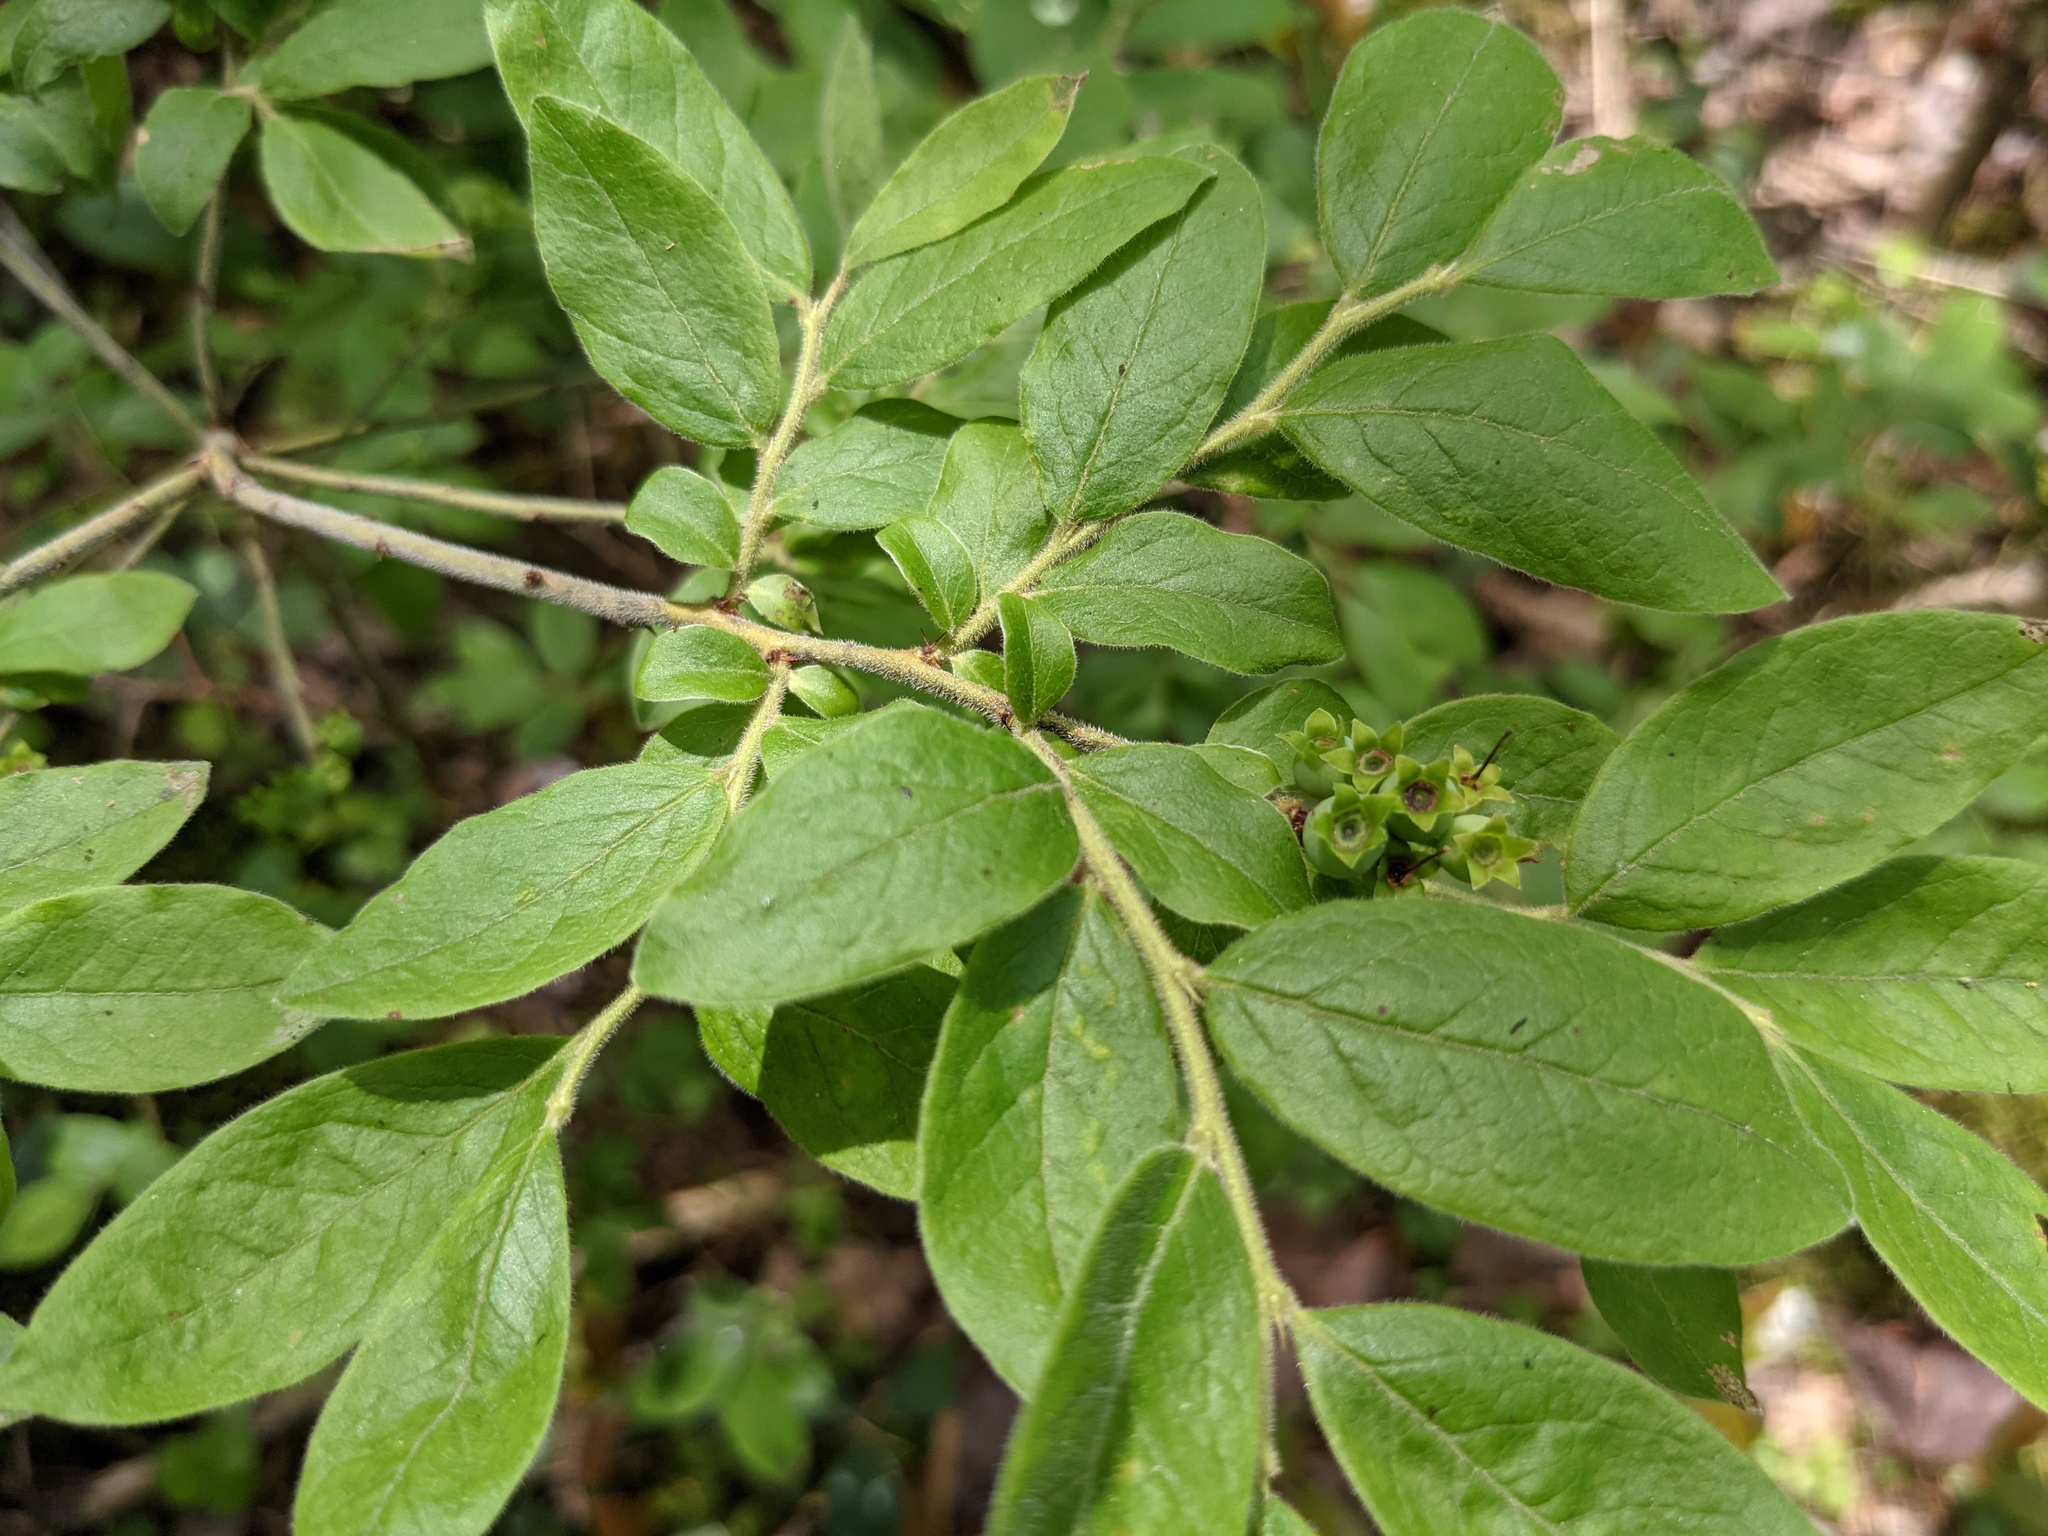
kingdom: Plantae
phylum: Tracheophyta
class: Magnoliopsida
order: Ericales
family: Ericaceae
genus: Vaccinium
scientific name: Vaccinium myrtilloides
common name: Canada blueberry
